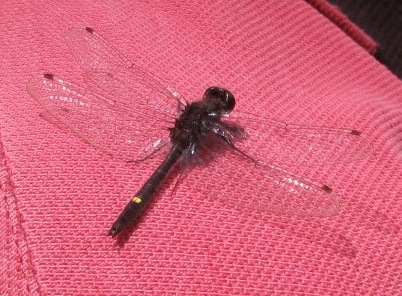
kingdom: Animalia
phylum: Arthropoda
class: Insecta
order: Odonata
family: Libellulidae
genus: Leucorrhinia
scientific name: Leucorrhinia intacta
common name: Dot-tailed whiteface
